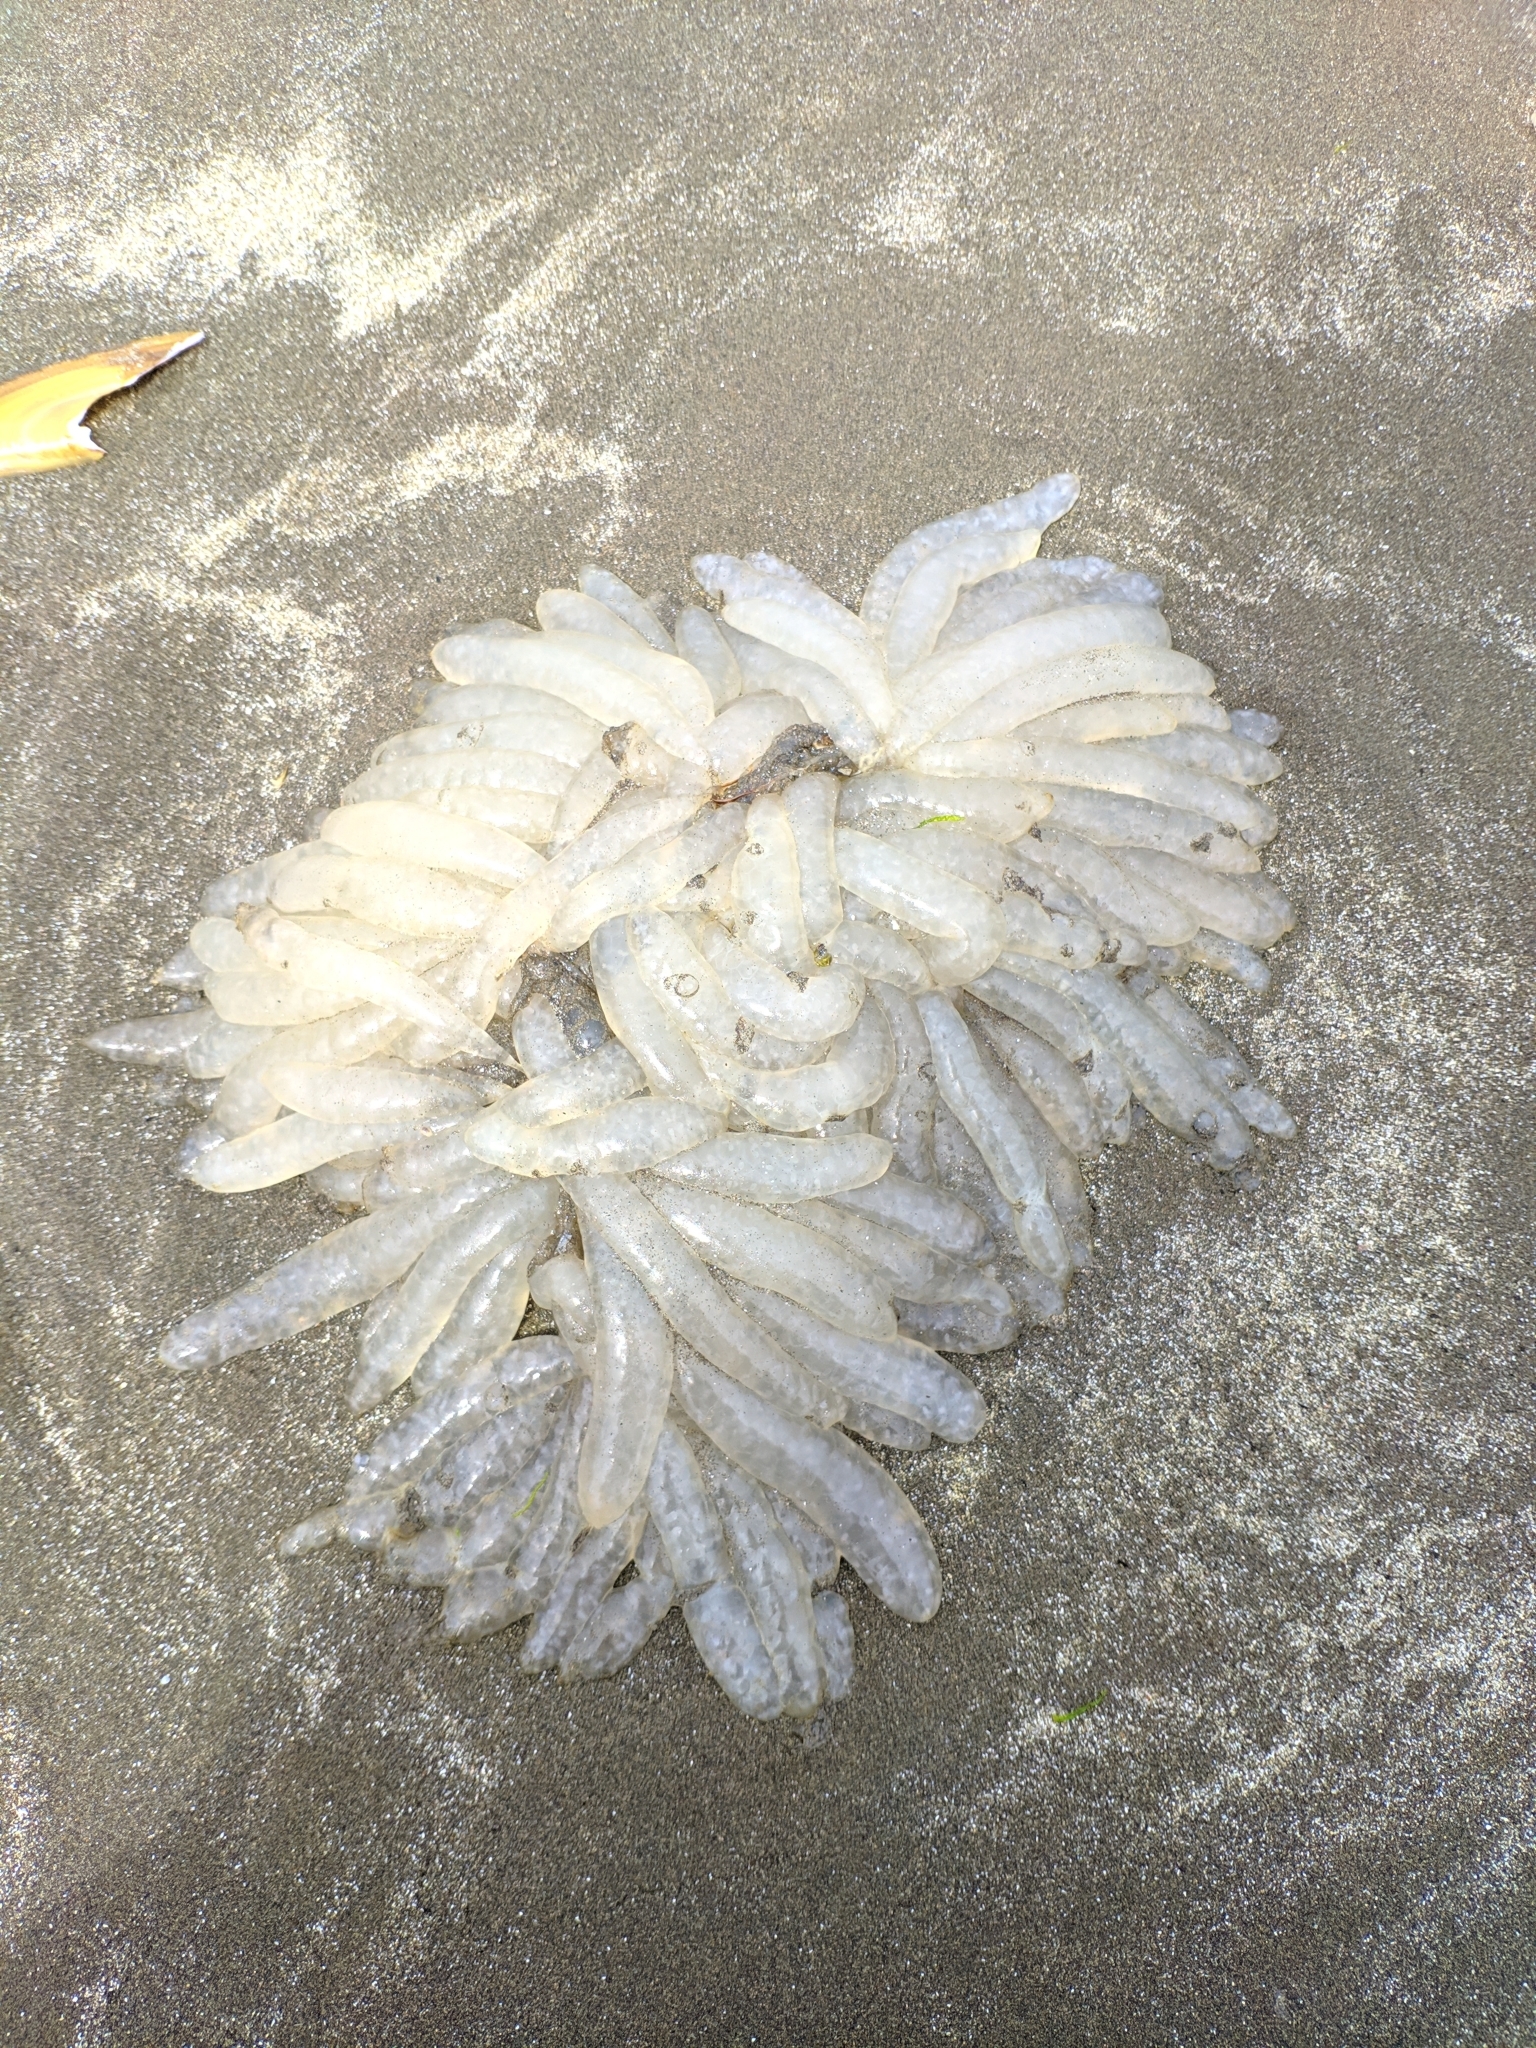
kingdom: Animalia
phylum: Mollusca
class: Cephalopoda
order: Myopsida
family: Loliginidae
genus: Doryteuthis
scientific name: Doryteuthis opalescens
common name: Opalescent inshore squid
